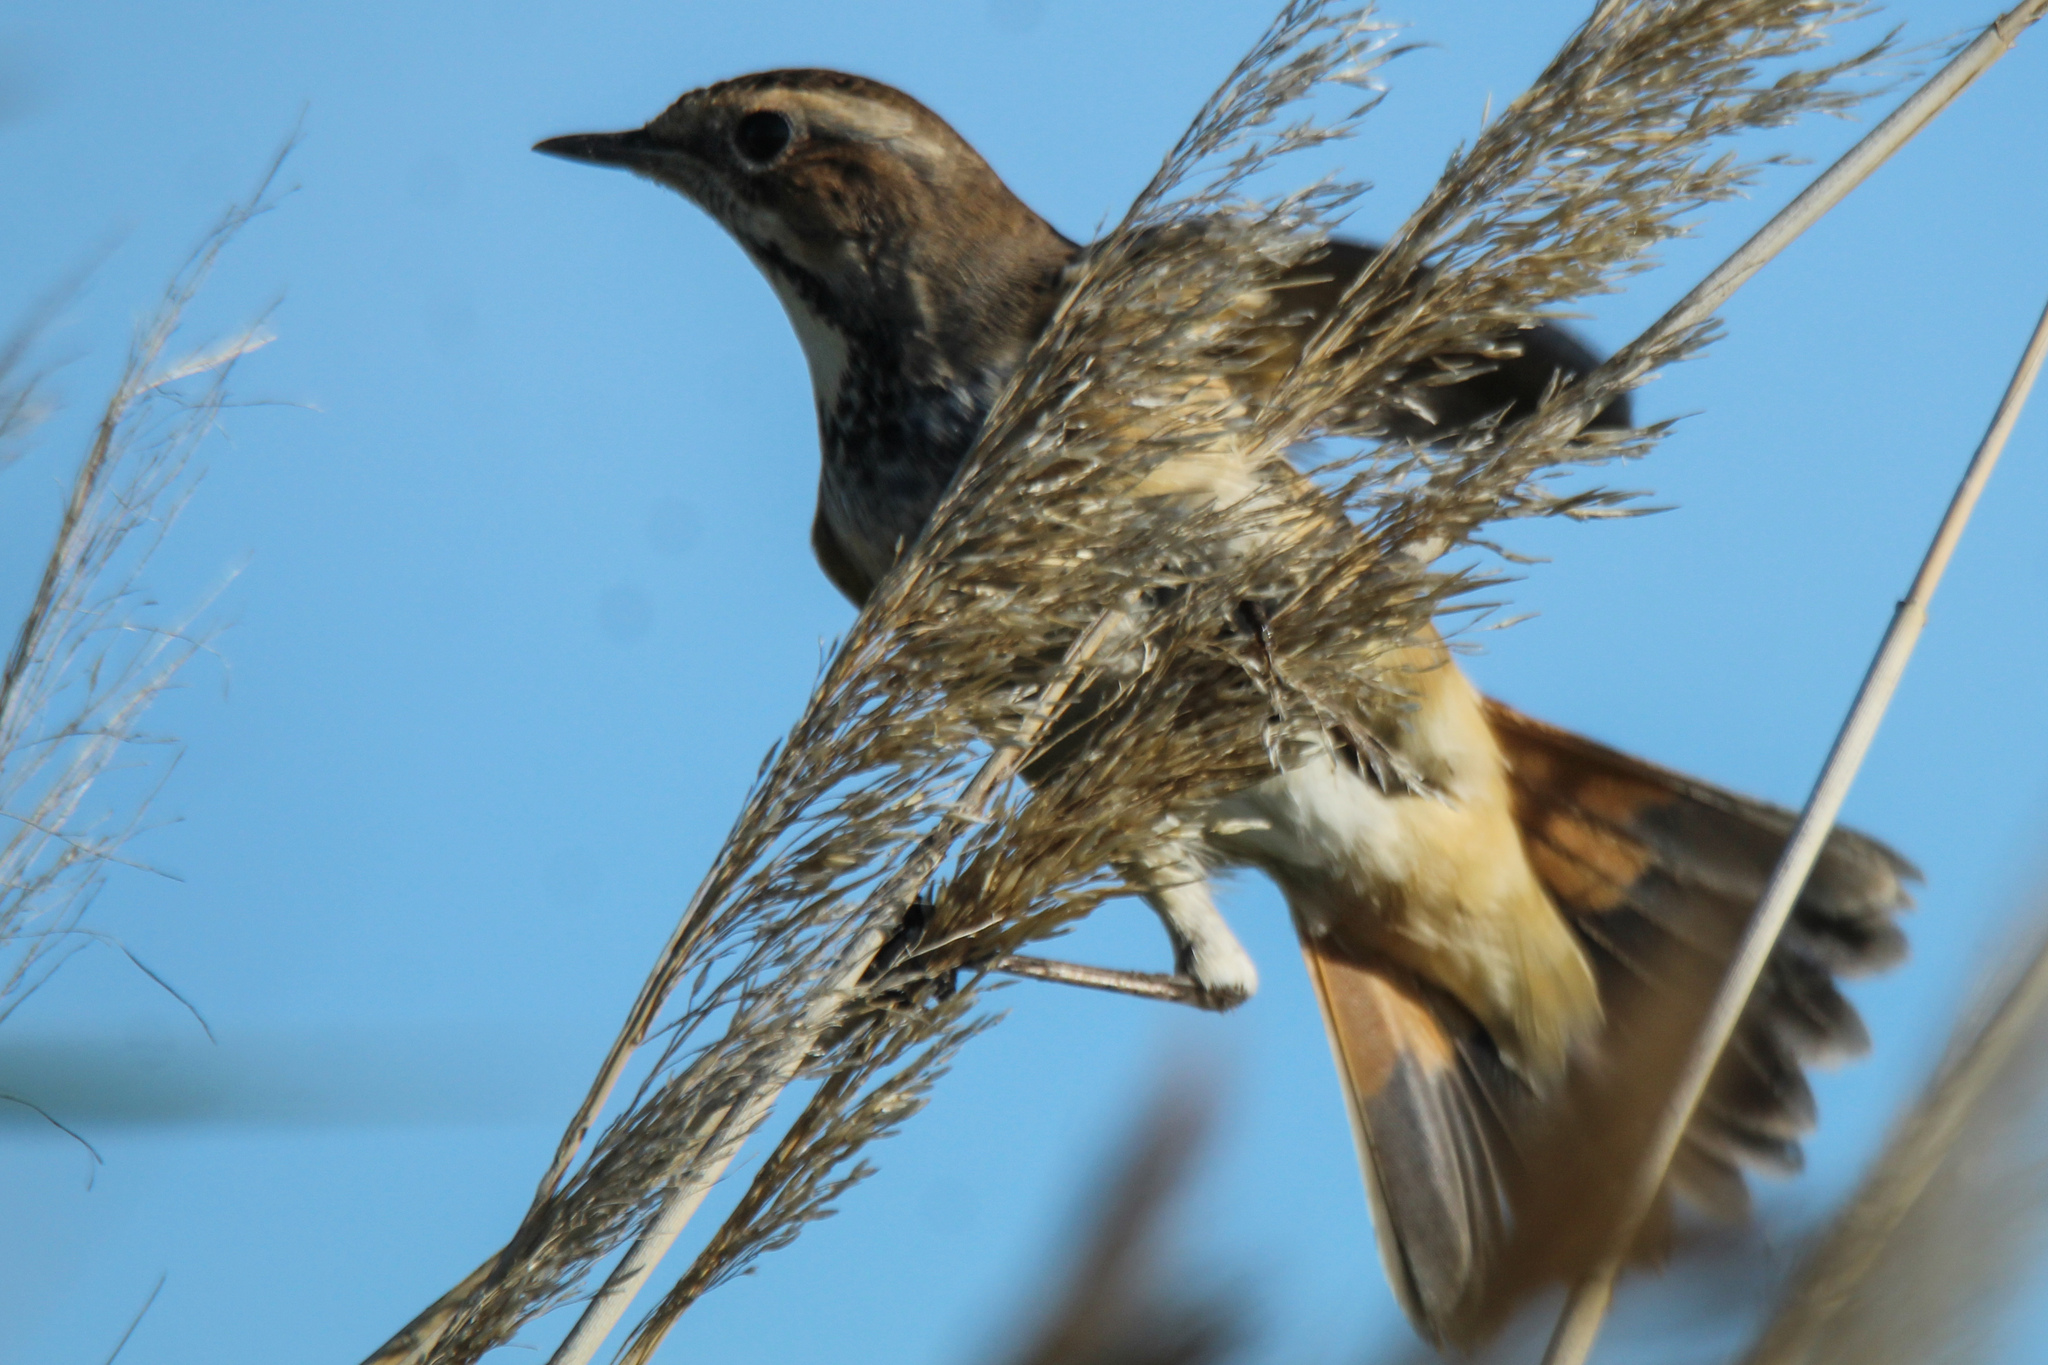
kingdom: Animalia
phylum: Chordata
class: Aves
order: Passeriformes
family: Muscicapidae
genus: Luscinia
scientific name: Luscinia svecica
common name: Bluethroat
